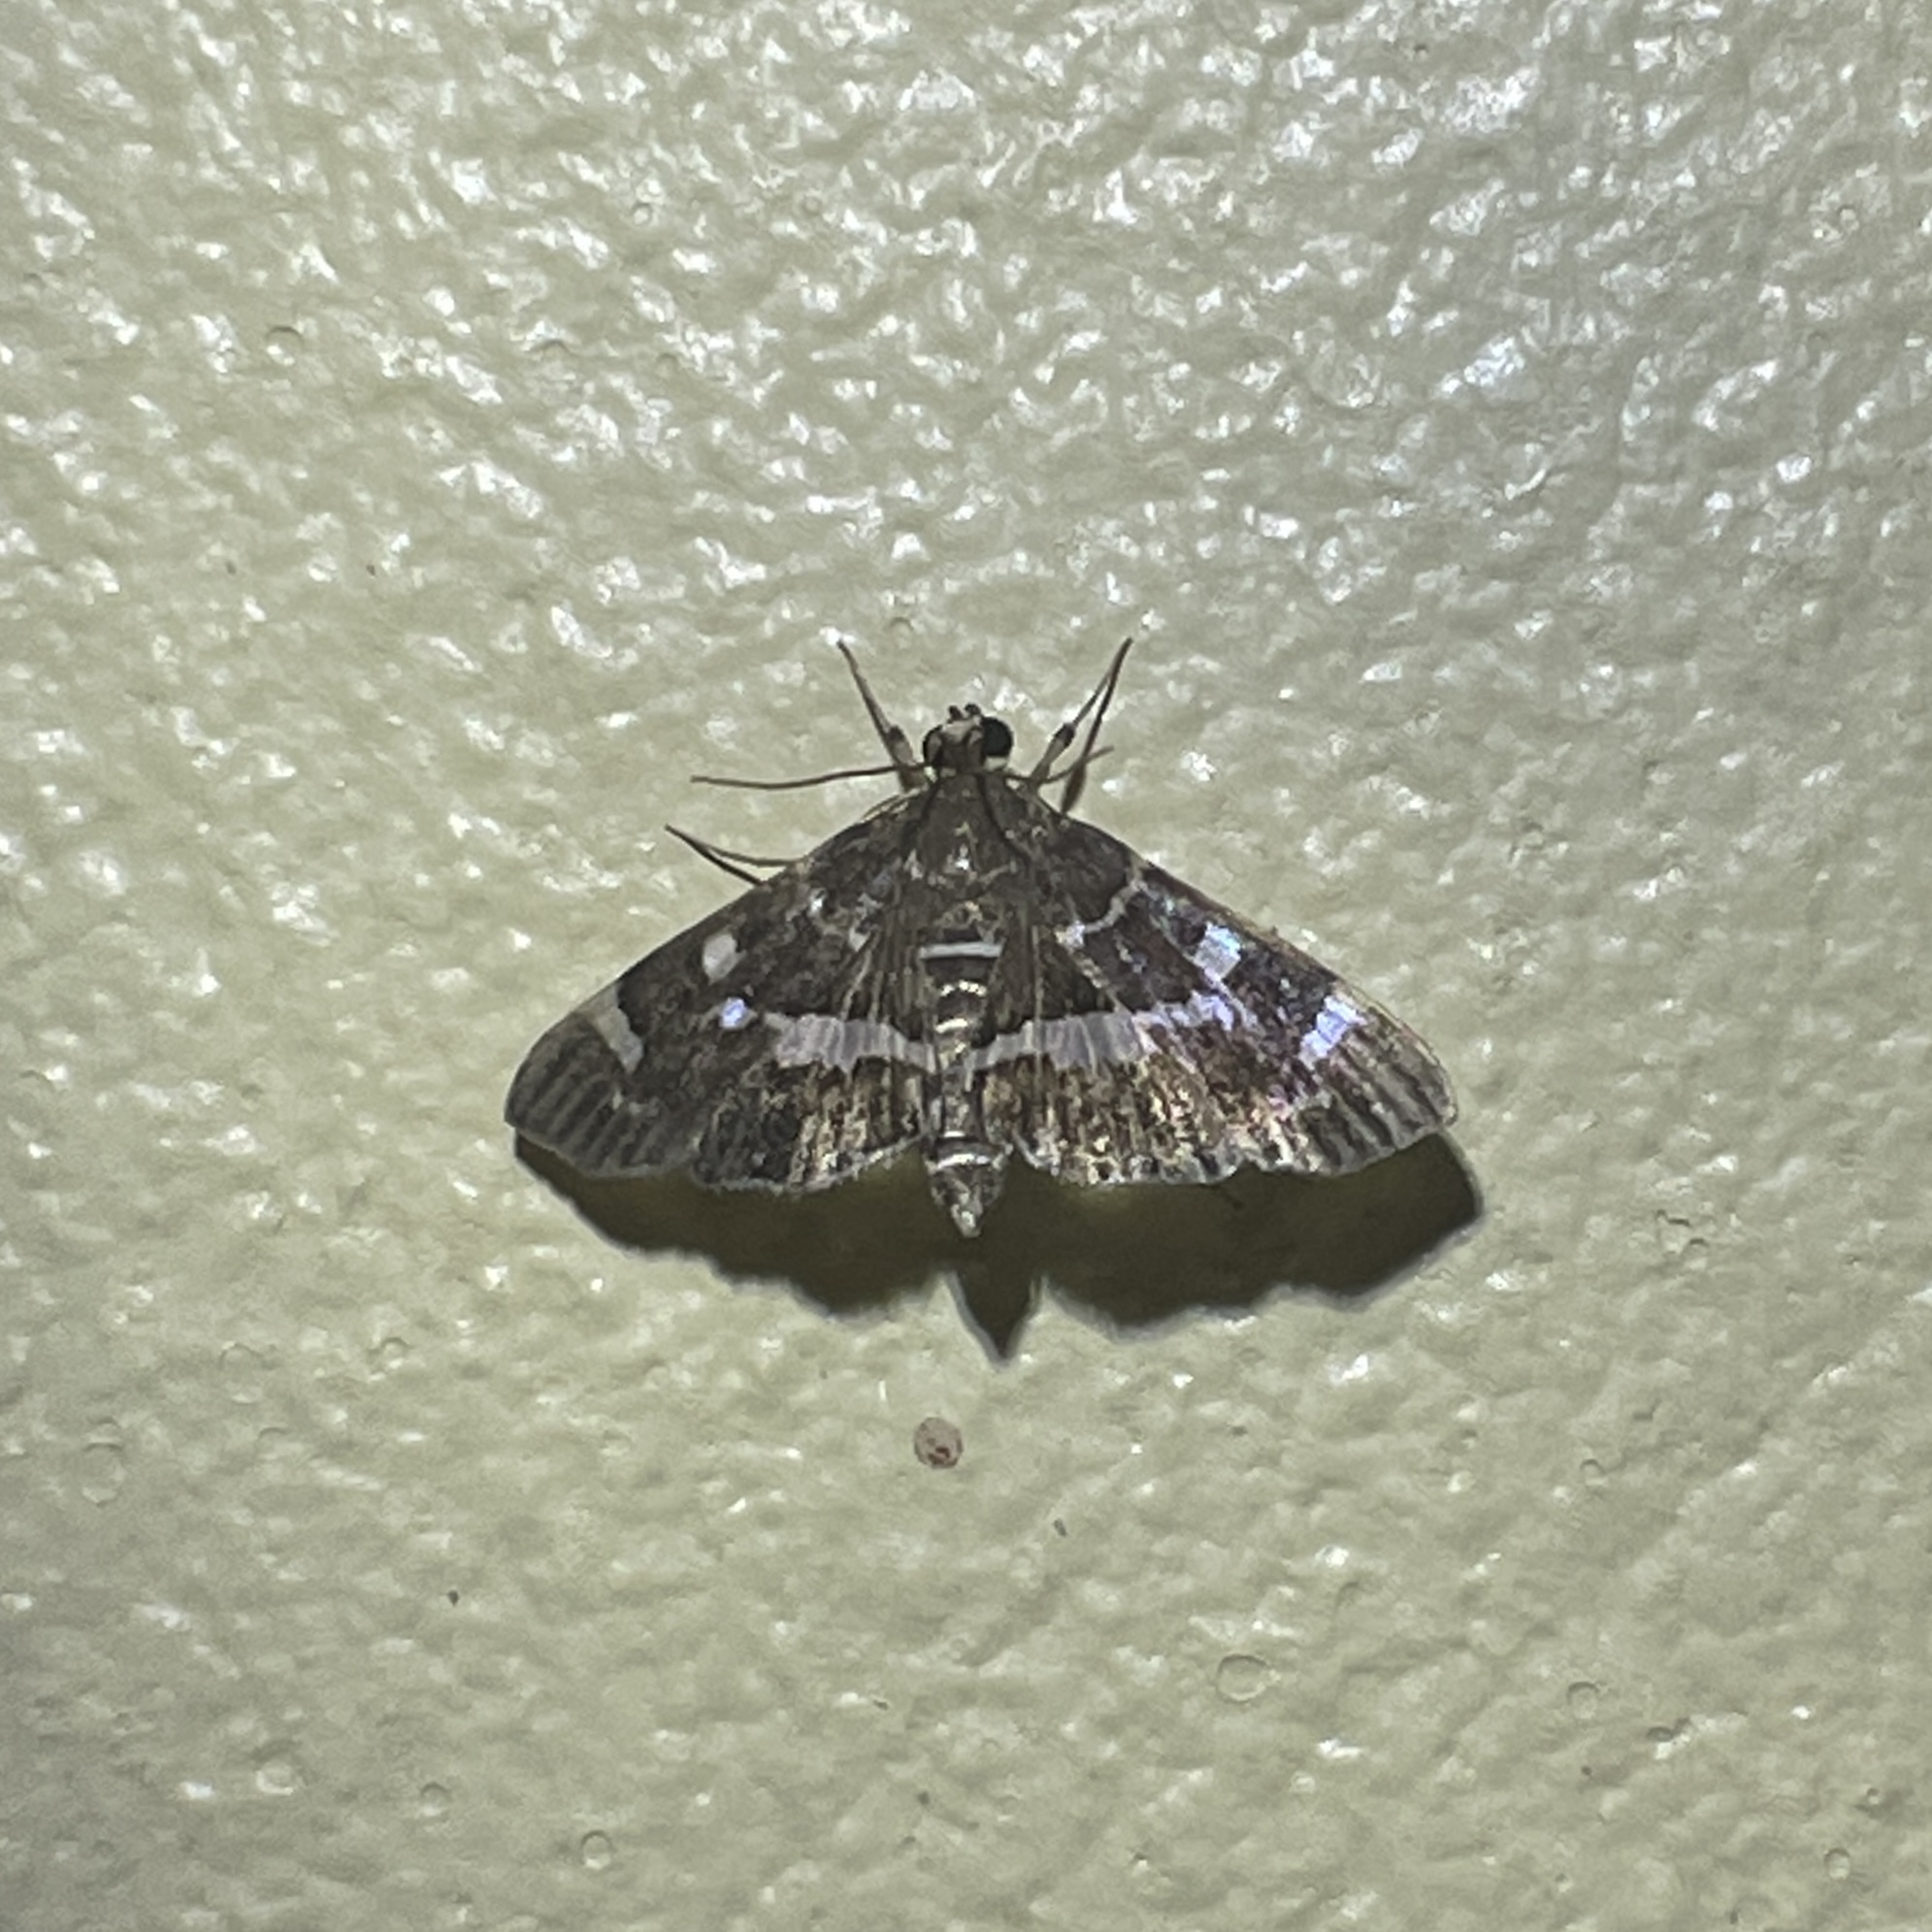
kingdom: Animalia
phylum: Arthropoda
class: Insecta
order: Lepidoptera
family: Crambidae
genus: Hymenia
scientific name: Hymenia perspectalis
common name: Spotted beet webworm
